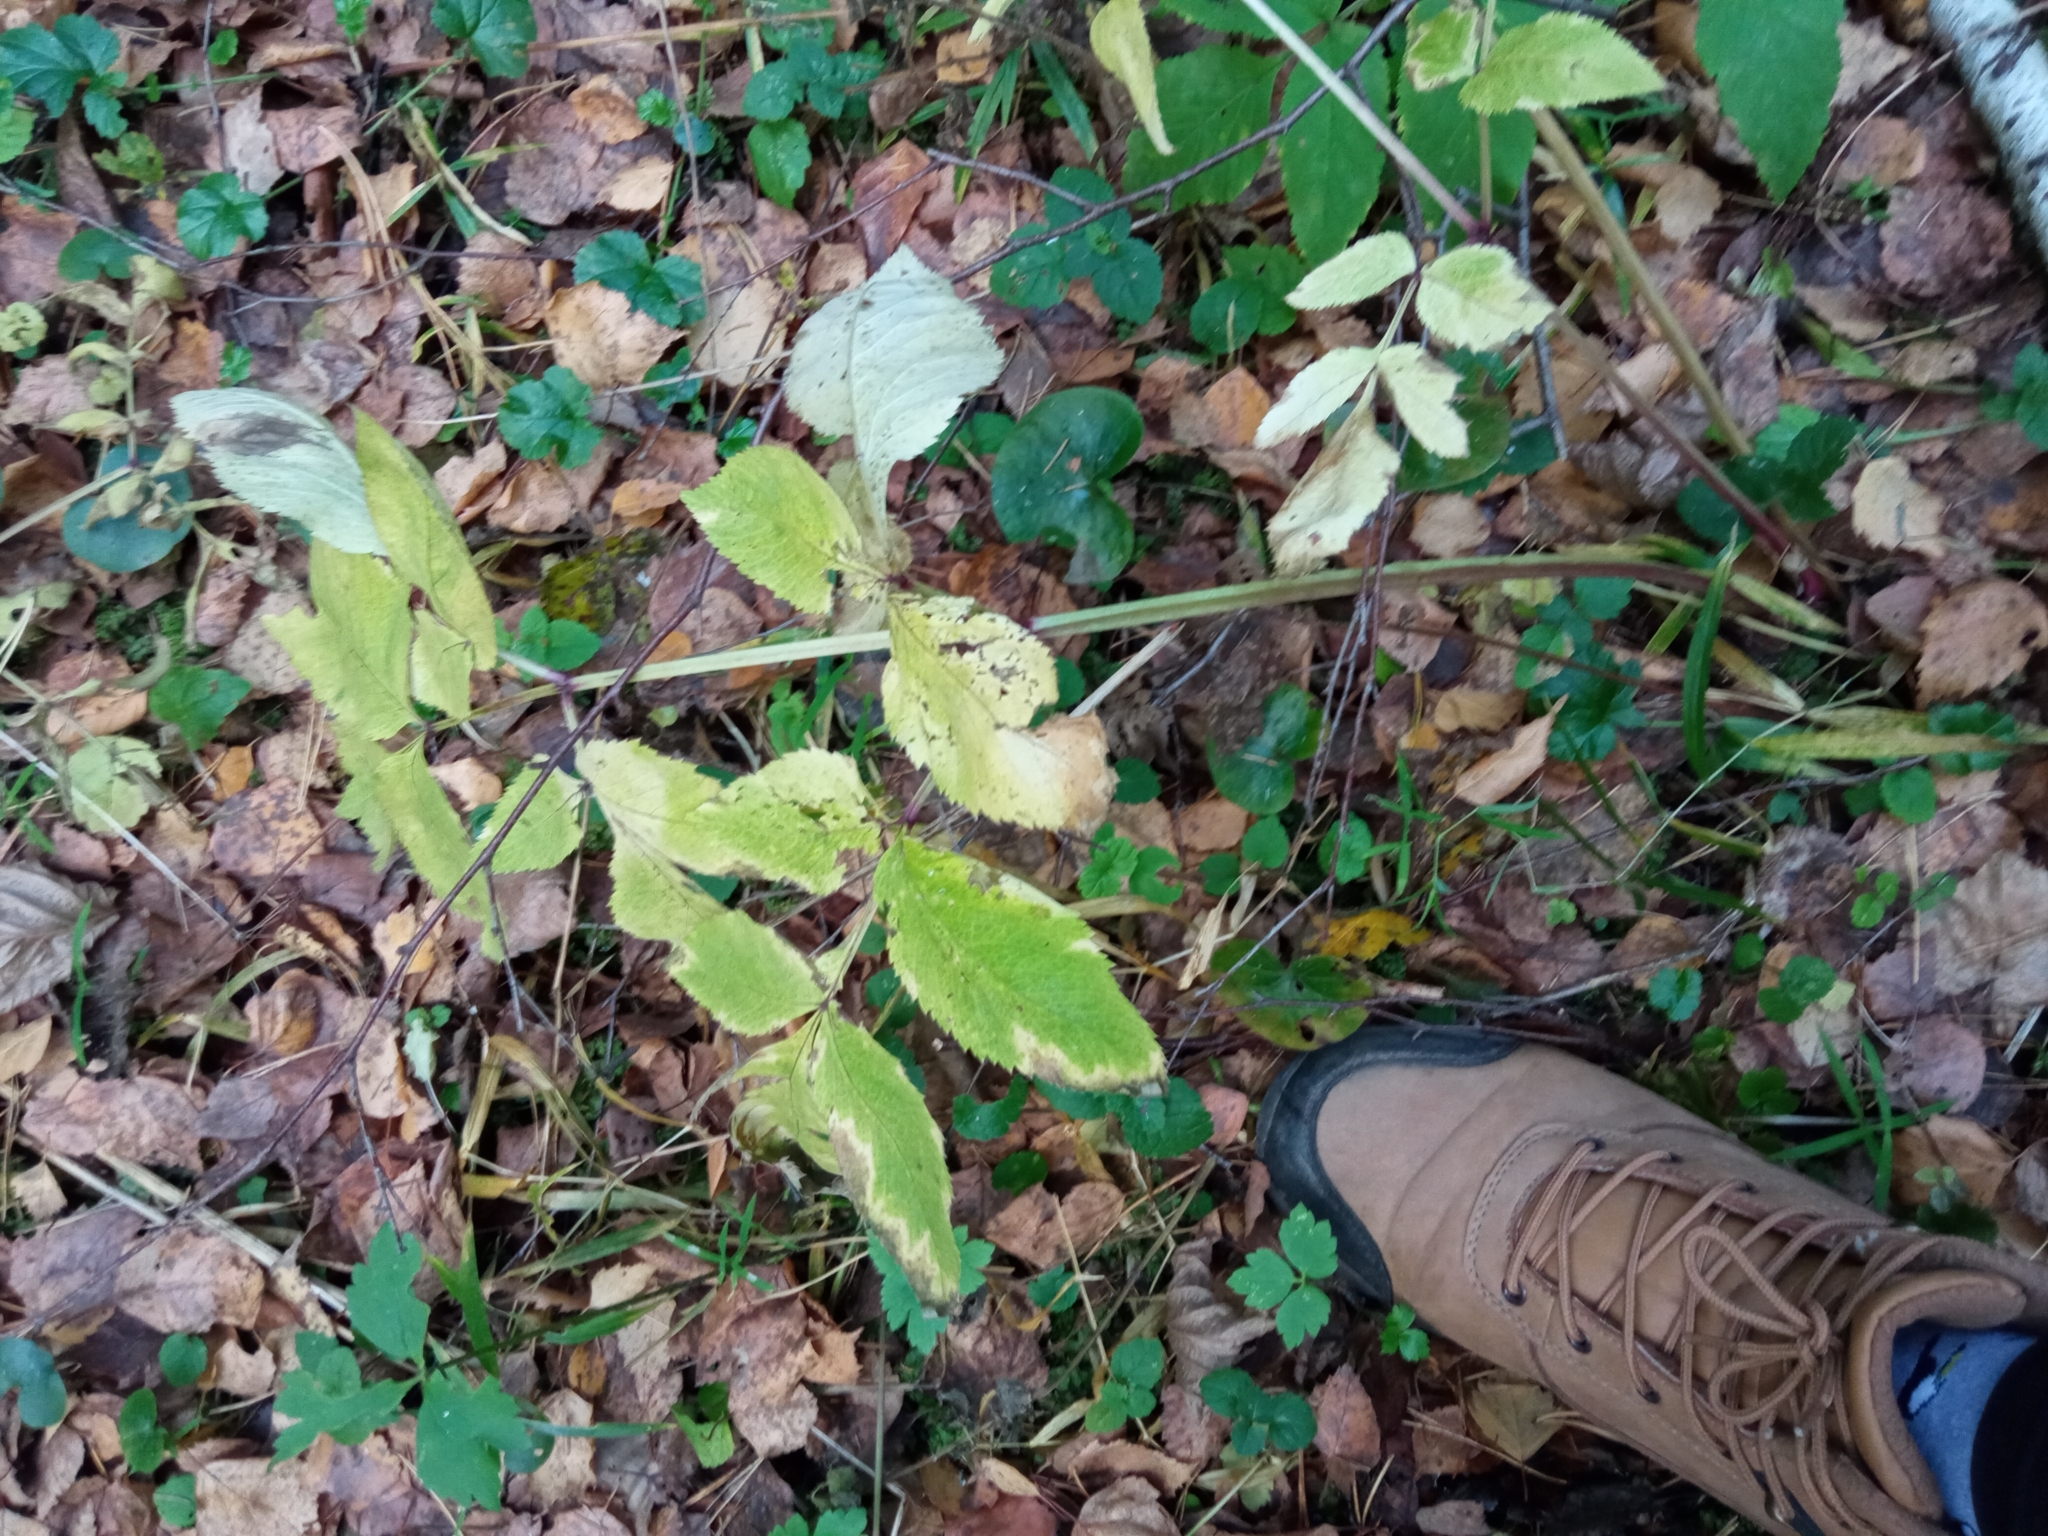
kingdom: Plantae
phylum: Tracheophyta
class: Magnoliopsida
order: Apiales
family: Apiaceae
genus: Angelica
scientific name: Angelica sylvestris
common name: Wild angelica
